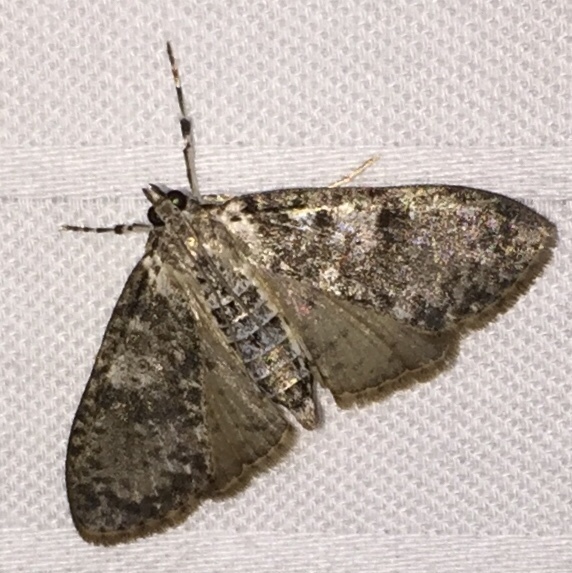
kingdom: Animalia
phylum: Arthropoda
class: Insecta
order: Lepidoptera
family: Crambidae
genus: Palpita
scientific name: Palpita magniferalis
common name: Splendid palpita moth
